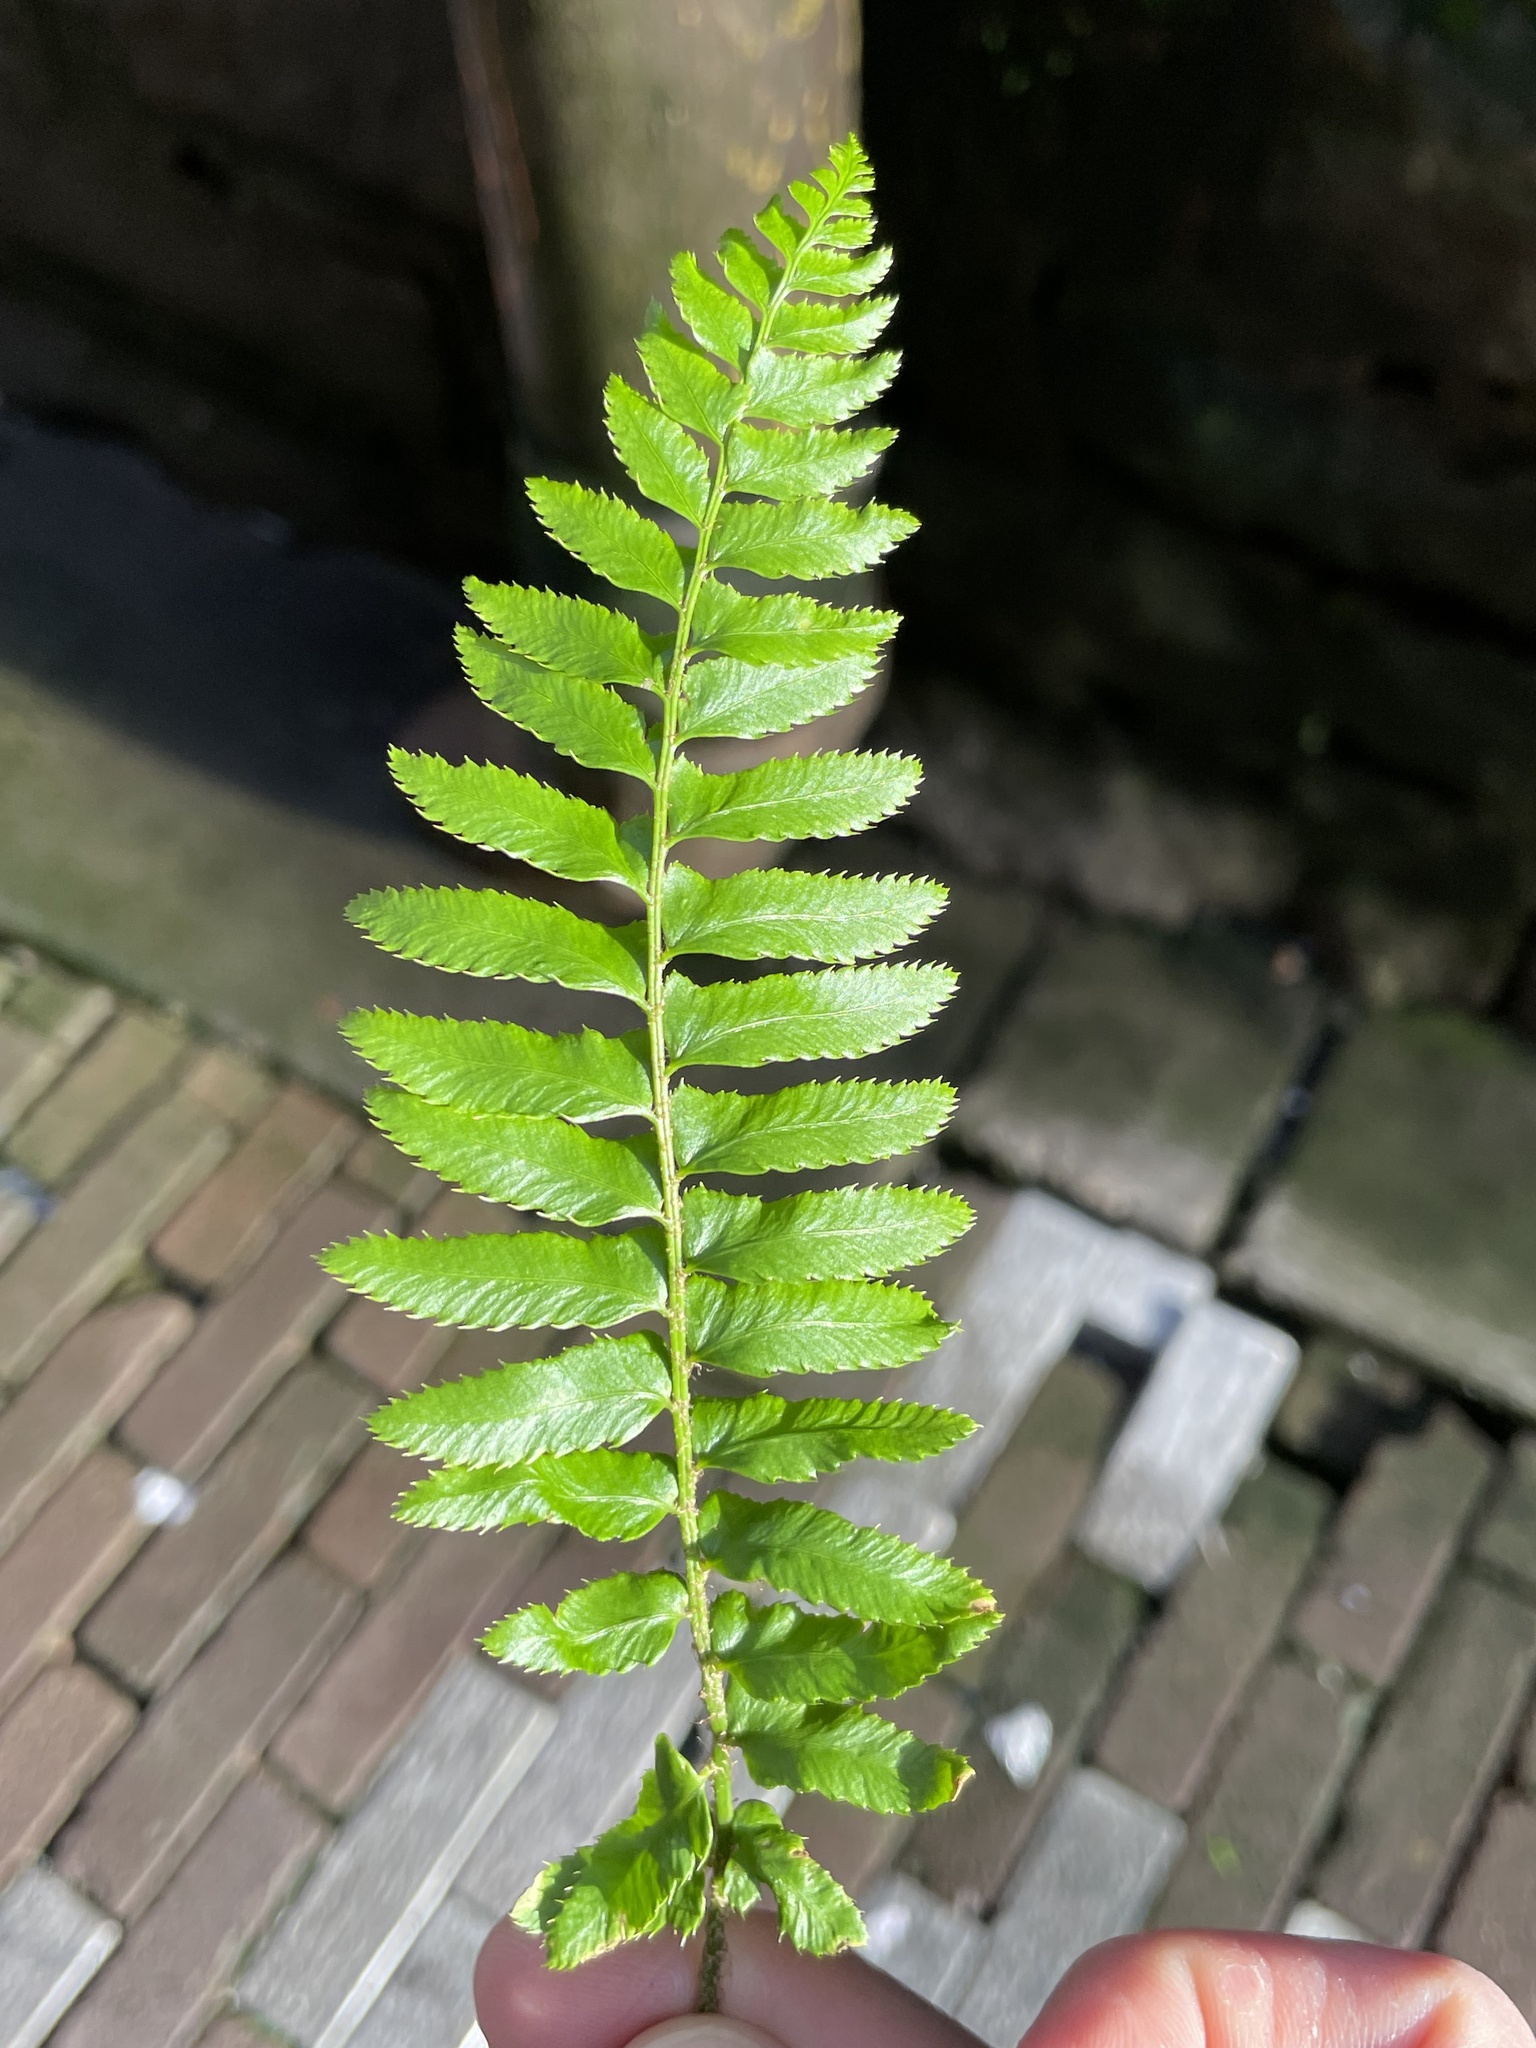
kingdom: Plantae
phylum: Tracheophyta
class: Polypodiopsida
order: Polypodiales
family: Dryopteridaceae
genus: Polystichum
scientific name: Polystichum munitum
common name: Western sword-fern
